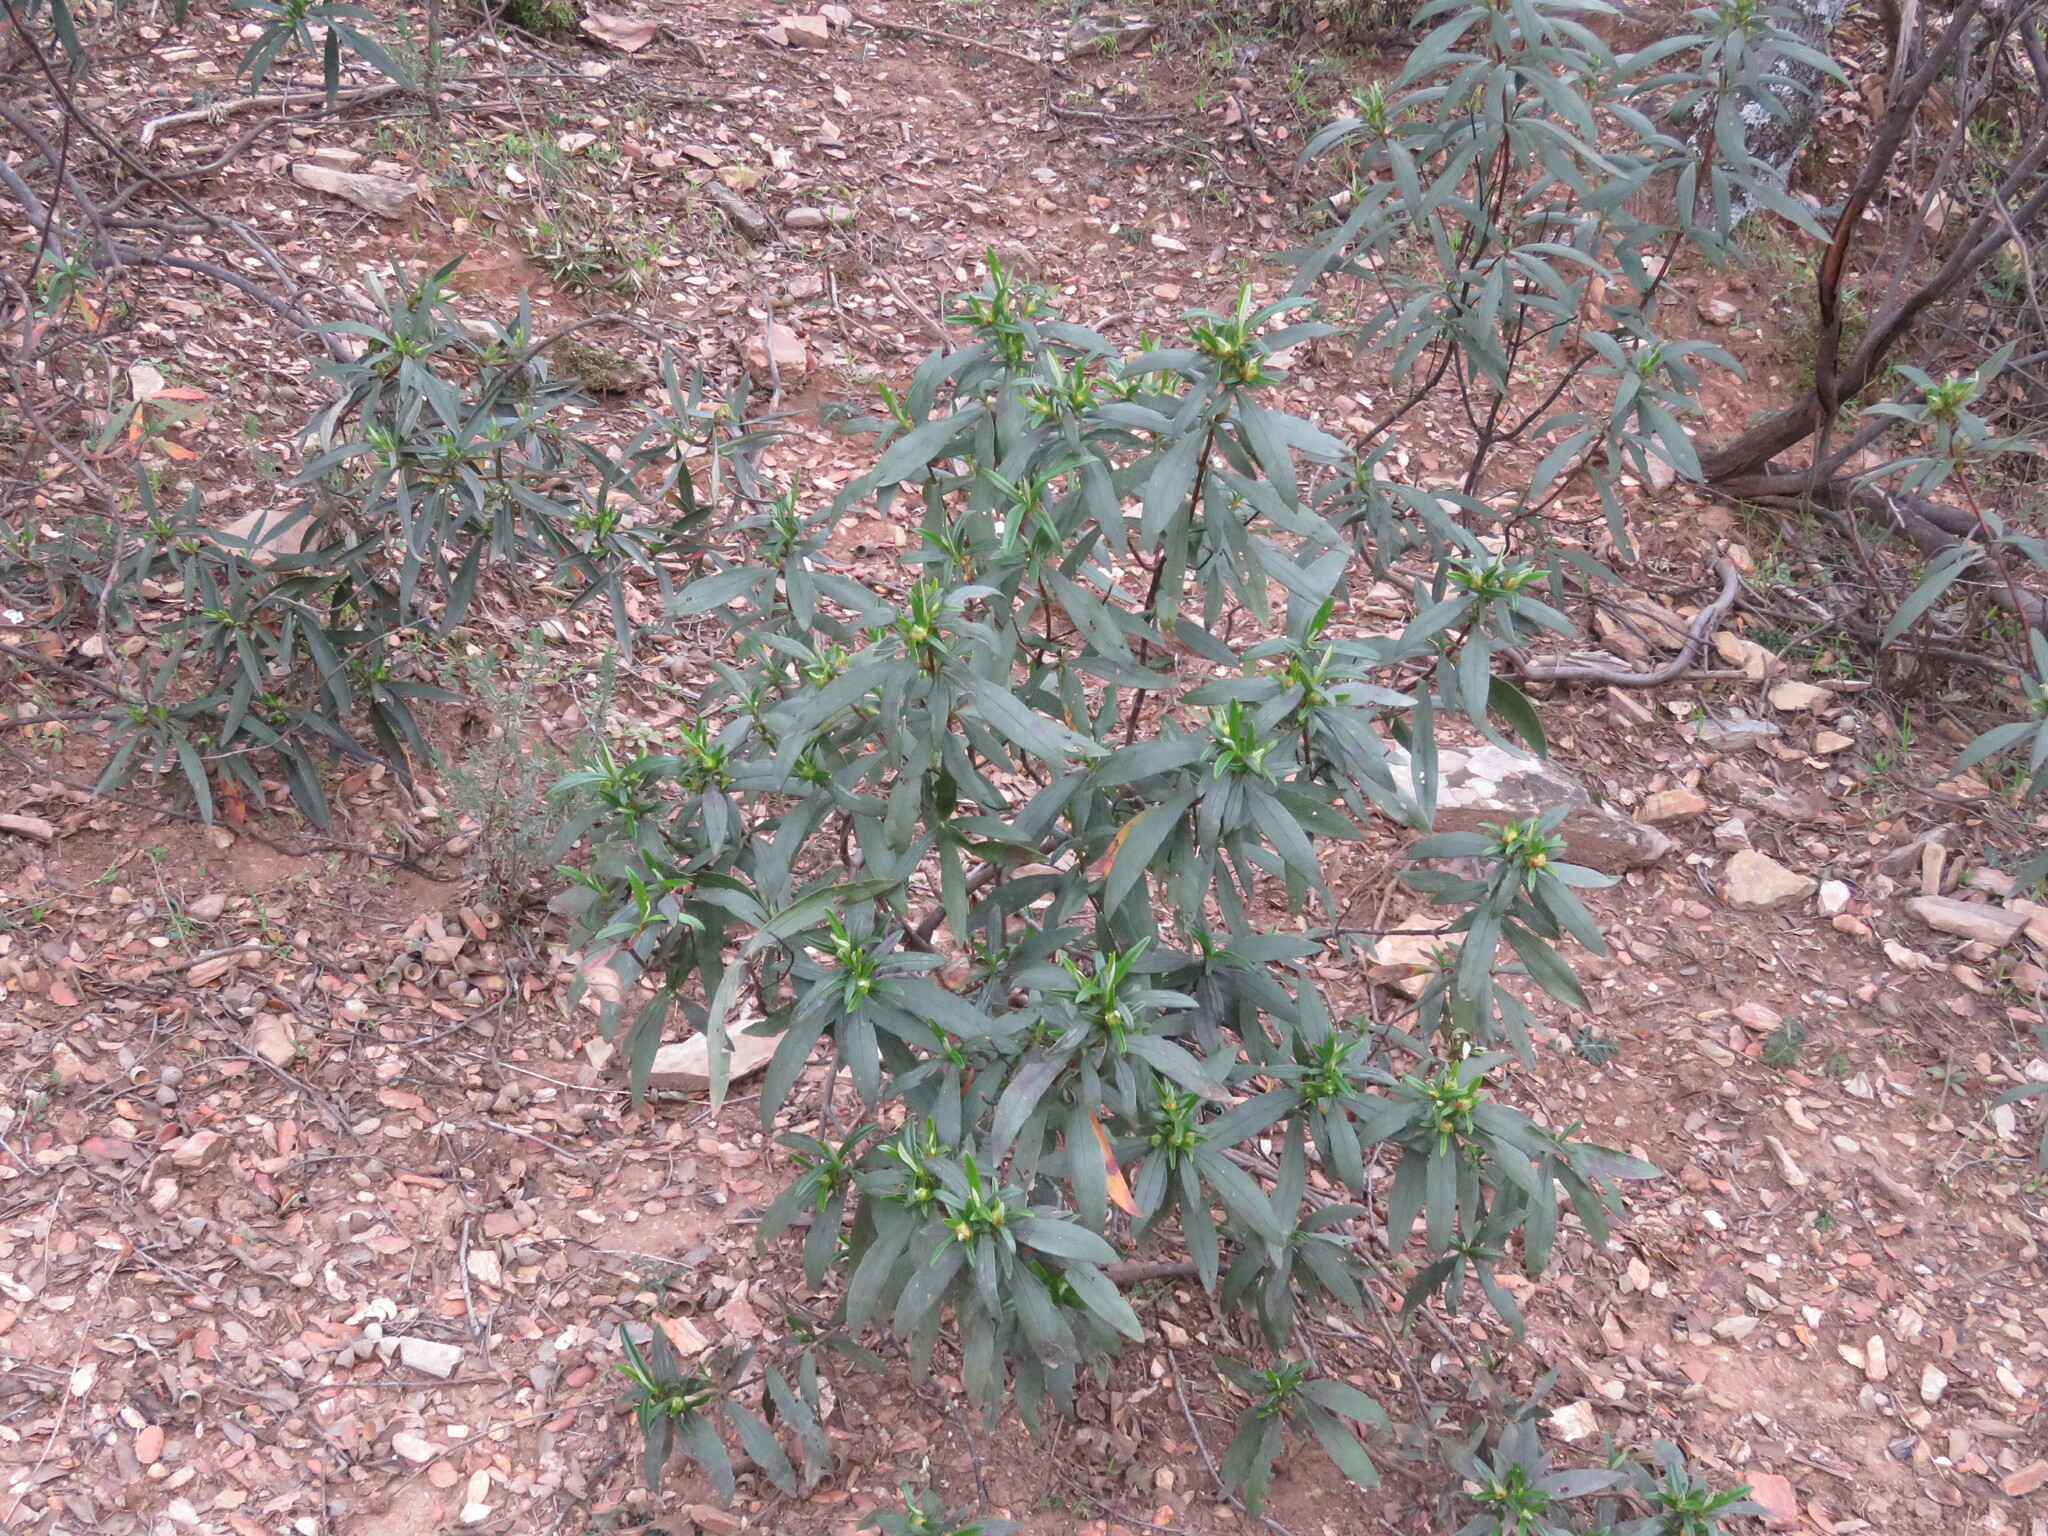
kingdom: Plantae
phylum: Tracheophyta
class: Magnoliopsida
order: Malvales
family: Cistaceae
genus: Cistus
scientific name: Cistus ladanifer
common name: Common gum cistus
